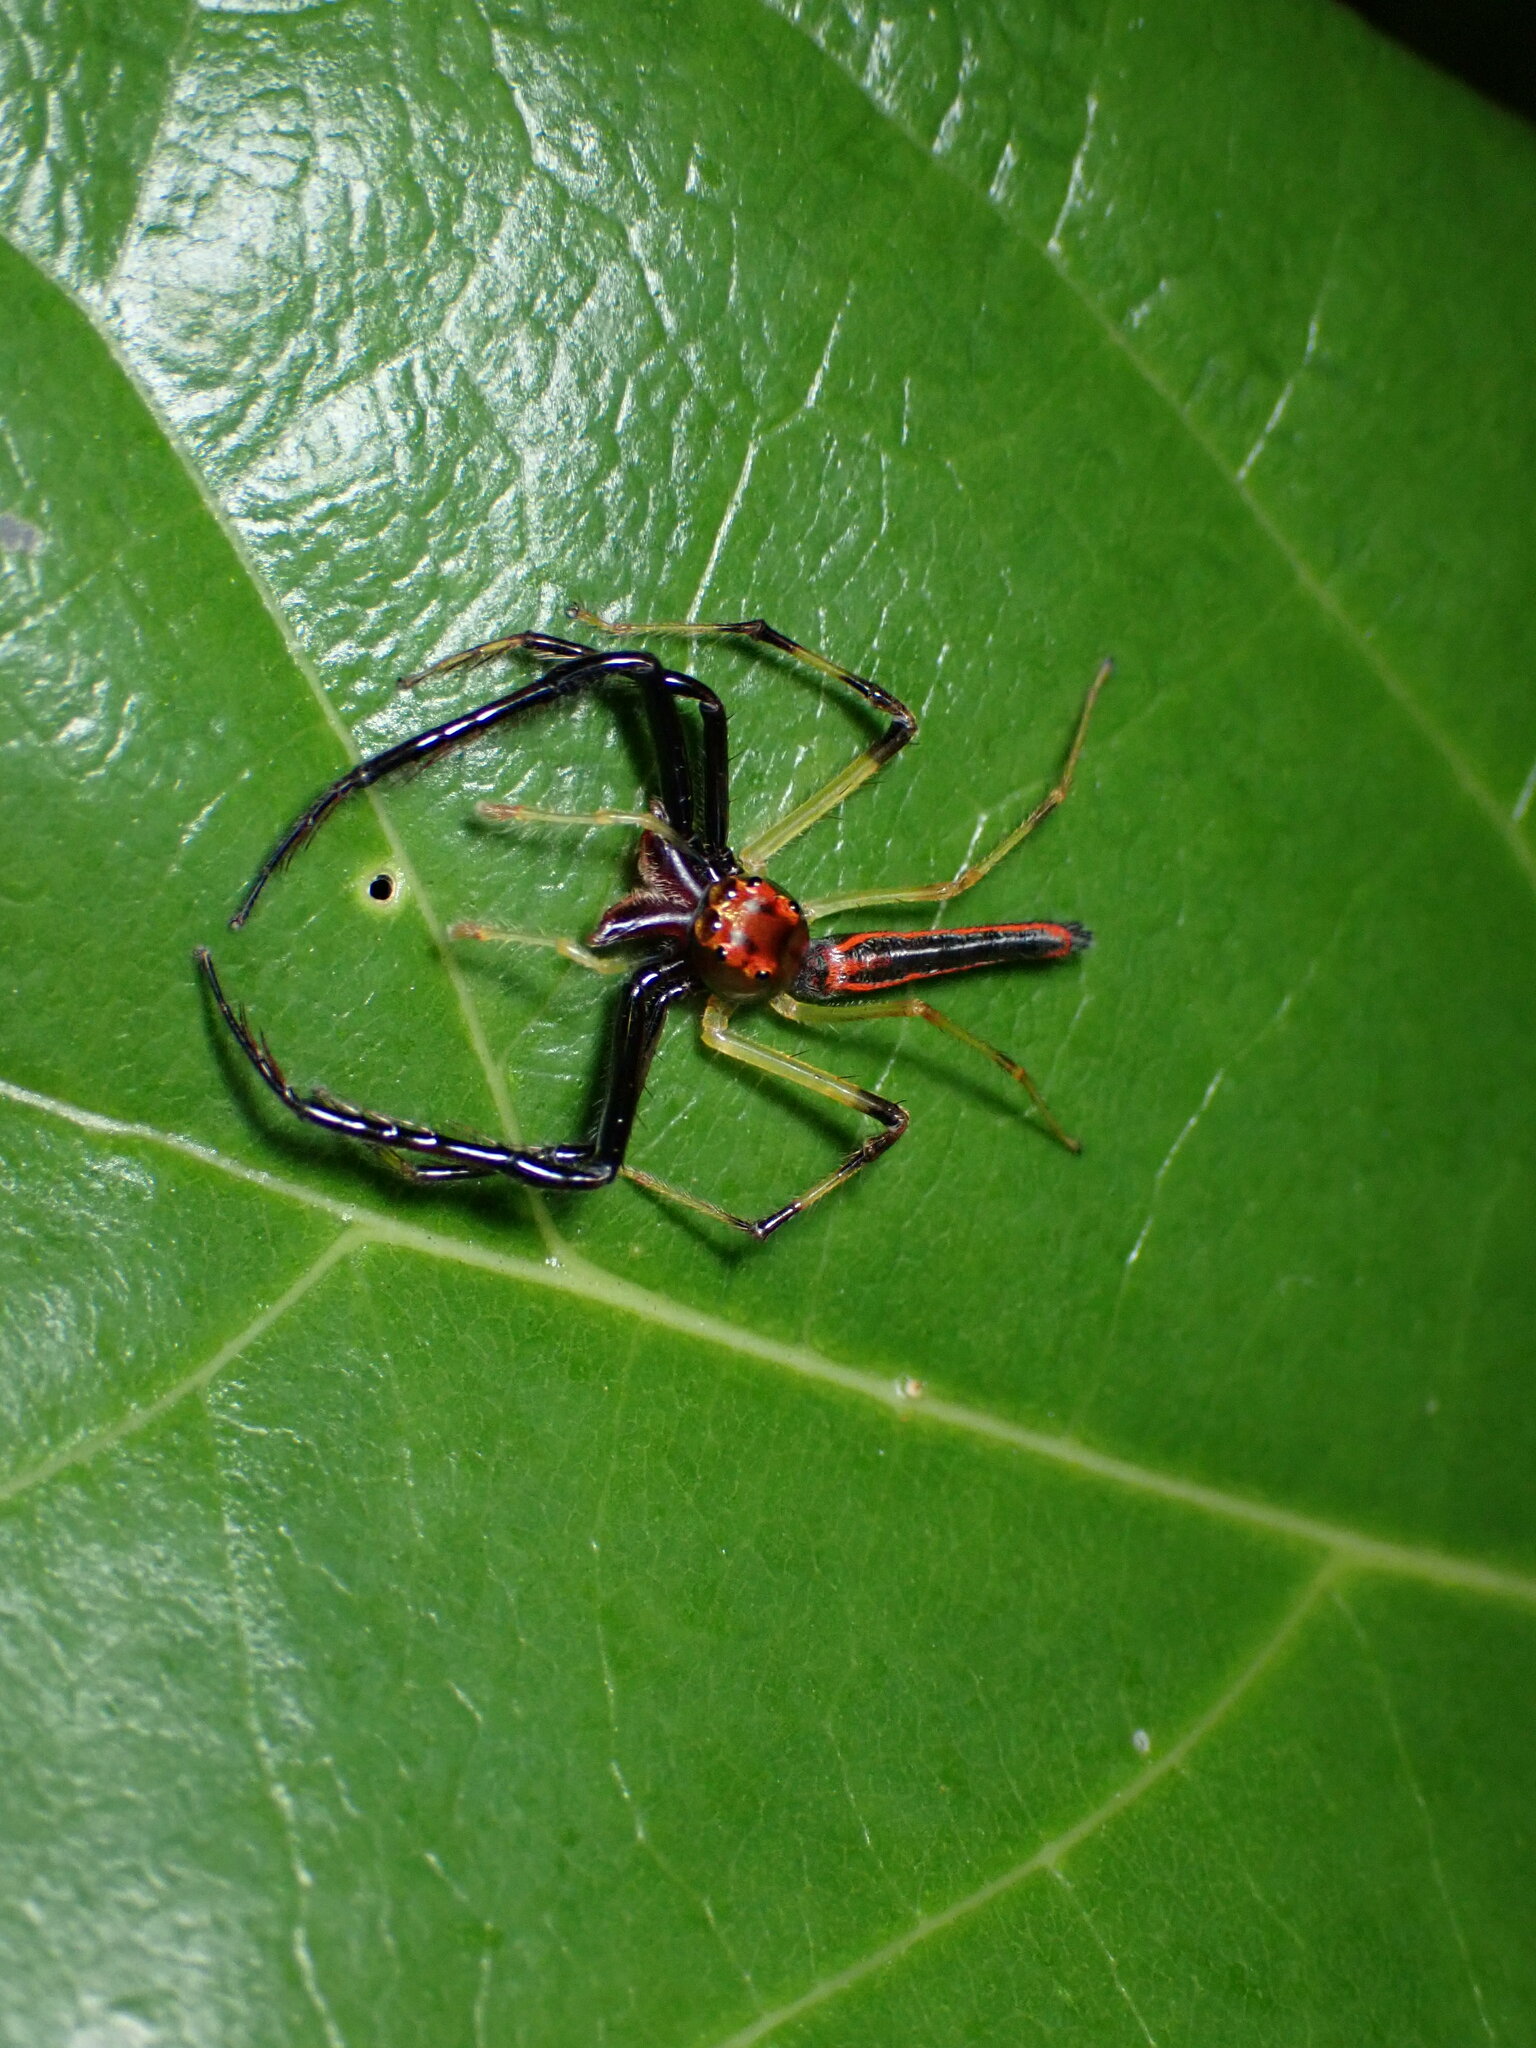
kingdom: Animalia
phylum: Arthropoda
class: Arachnida
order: Araneae
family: Salticidae
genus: Viciria
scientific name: Viciria pavesii
